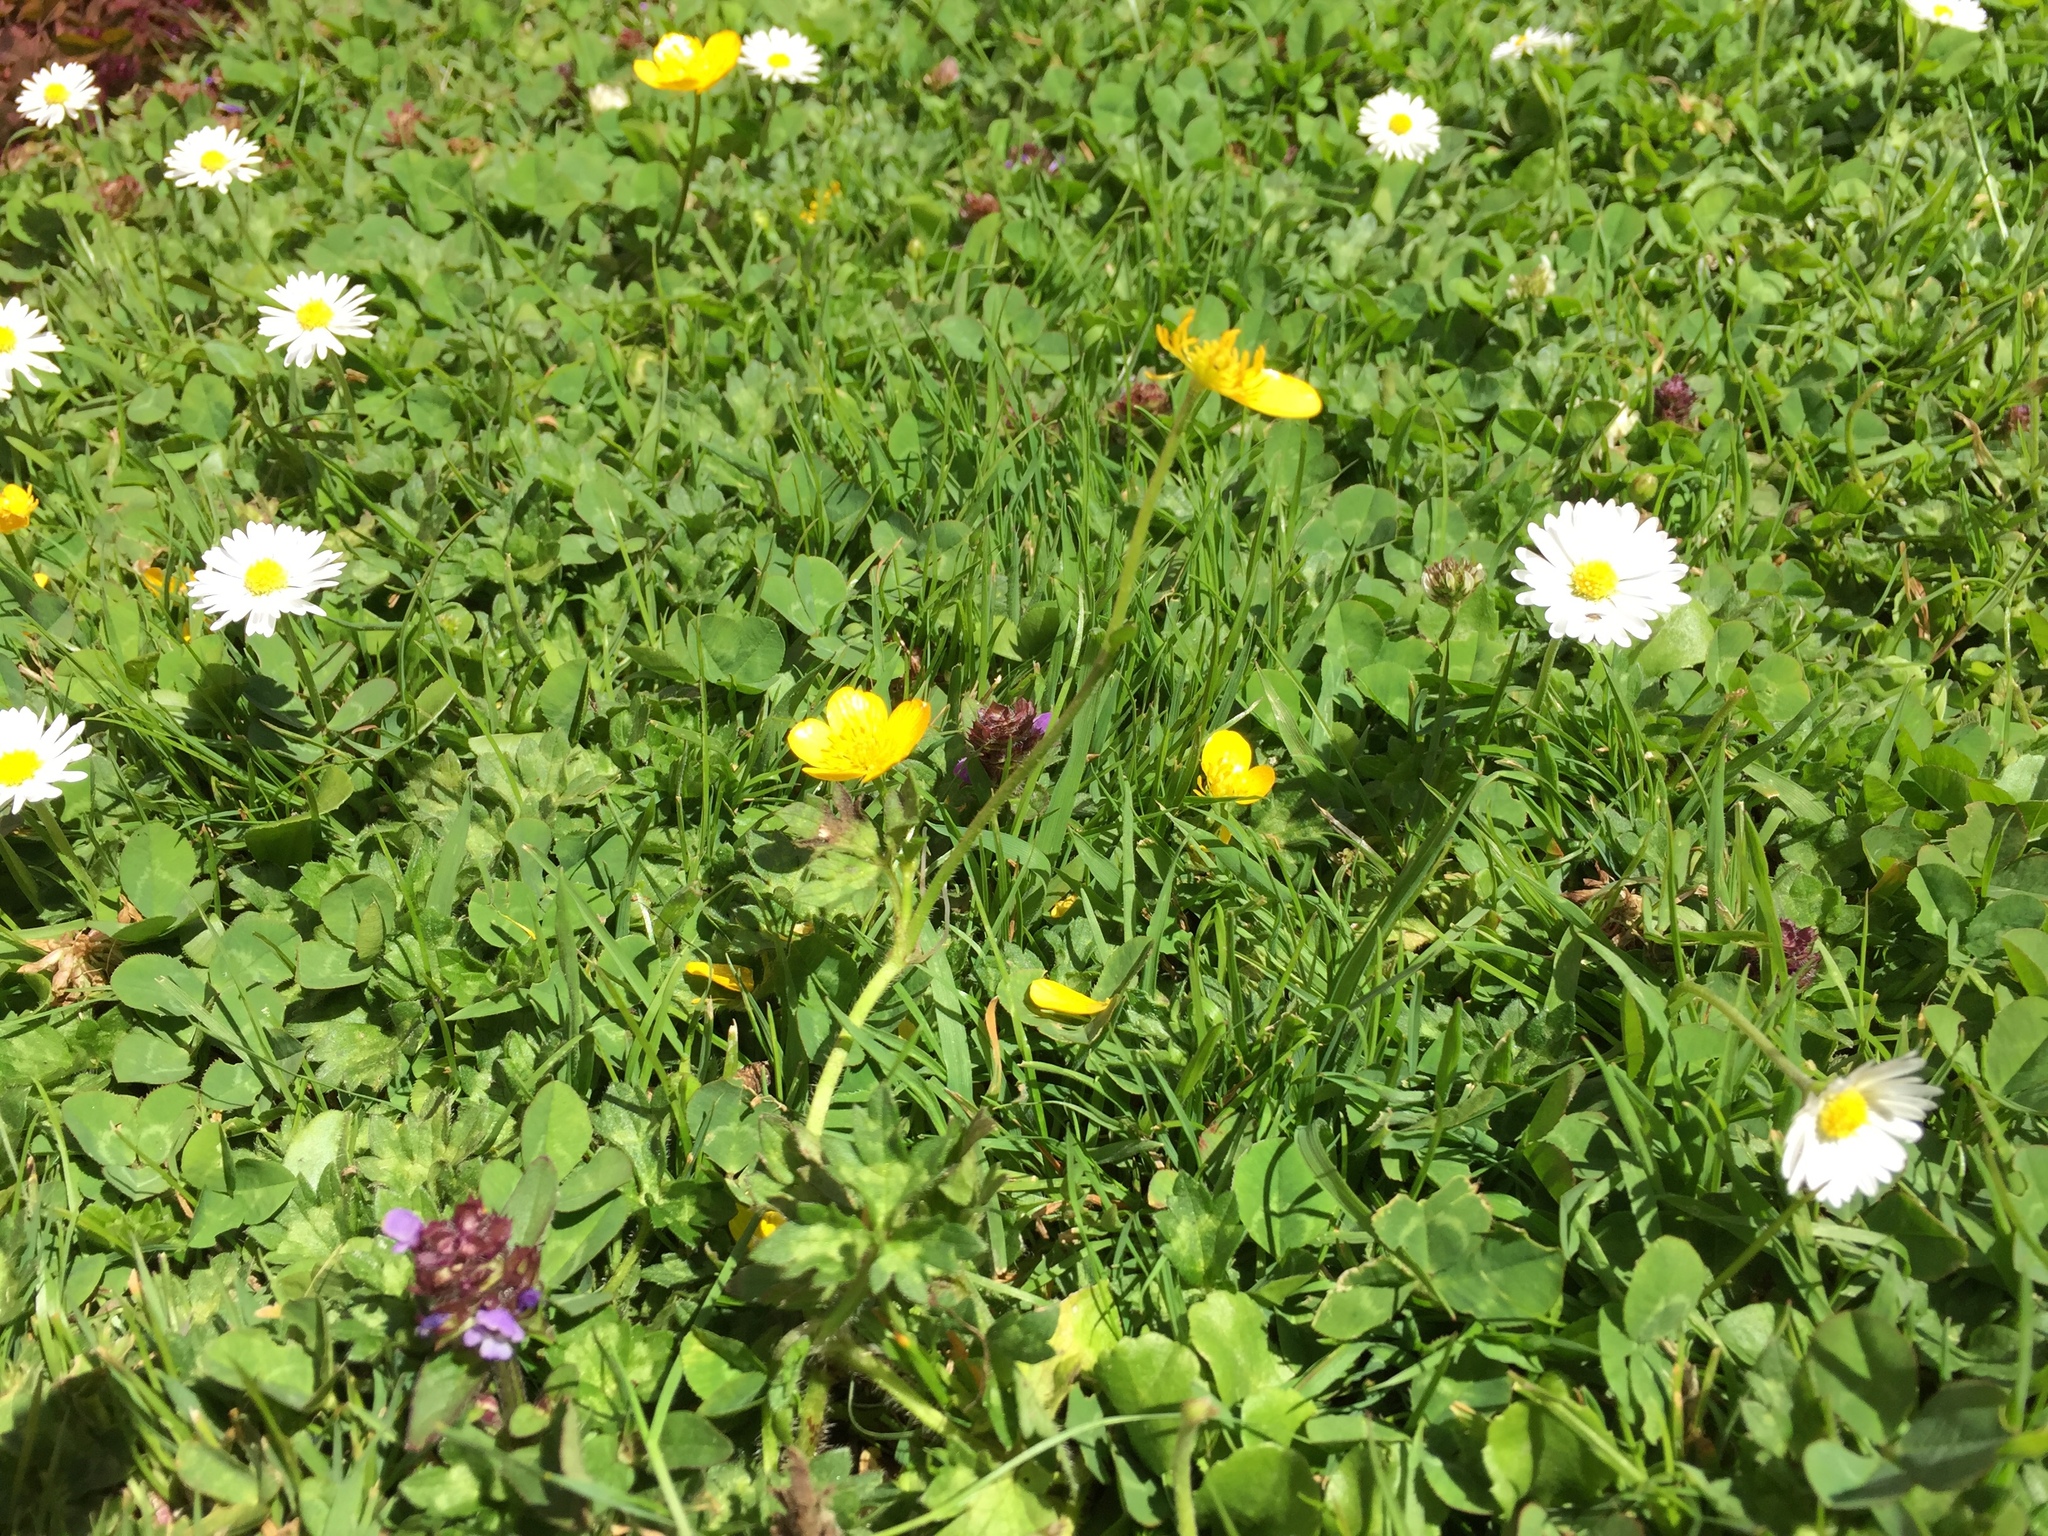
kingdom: Plantae
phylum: Tracheophyta
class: Magnoliopsida
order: Ranunculales
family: Ranunculaceae
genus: Ranunculus
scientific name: Ranunculus repens
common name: Creeping buttercup
